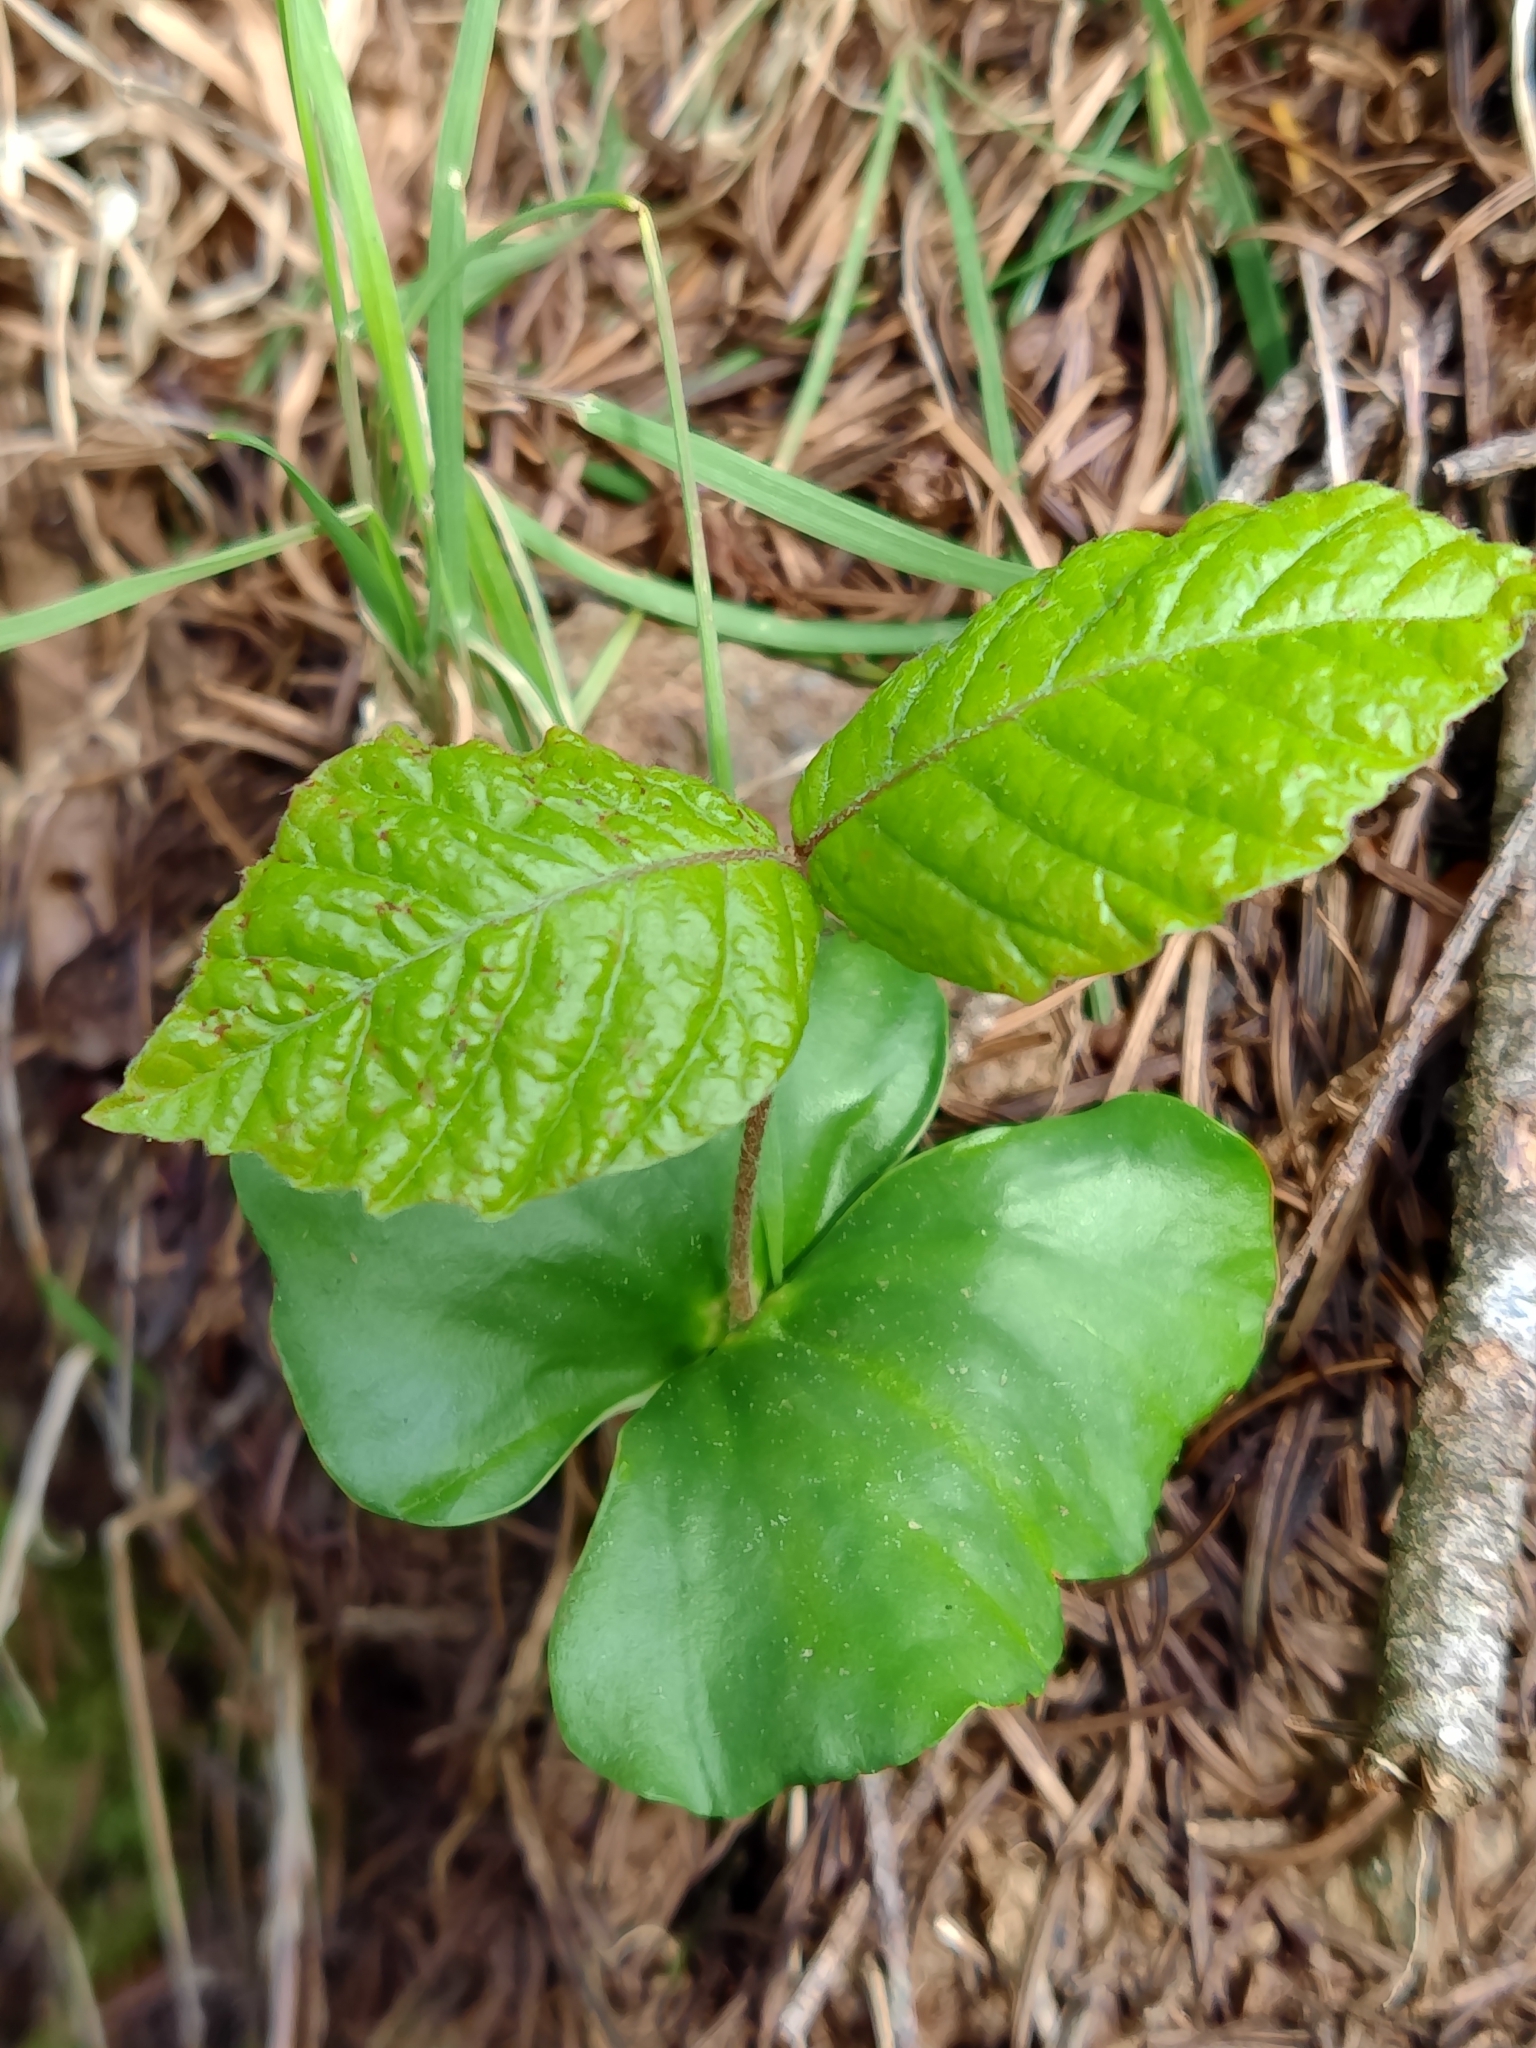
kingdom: Plantae
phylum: Tracheophyta
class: Magnoliopsida
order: Fagales
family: Fagaceae
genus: Fagus
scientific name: Fagus sylvatica
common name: Beech
